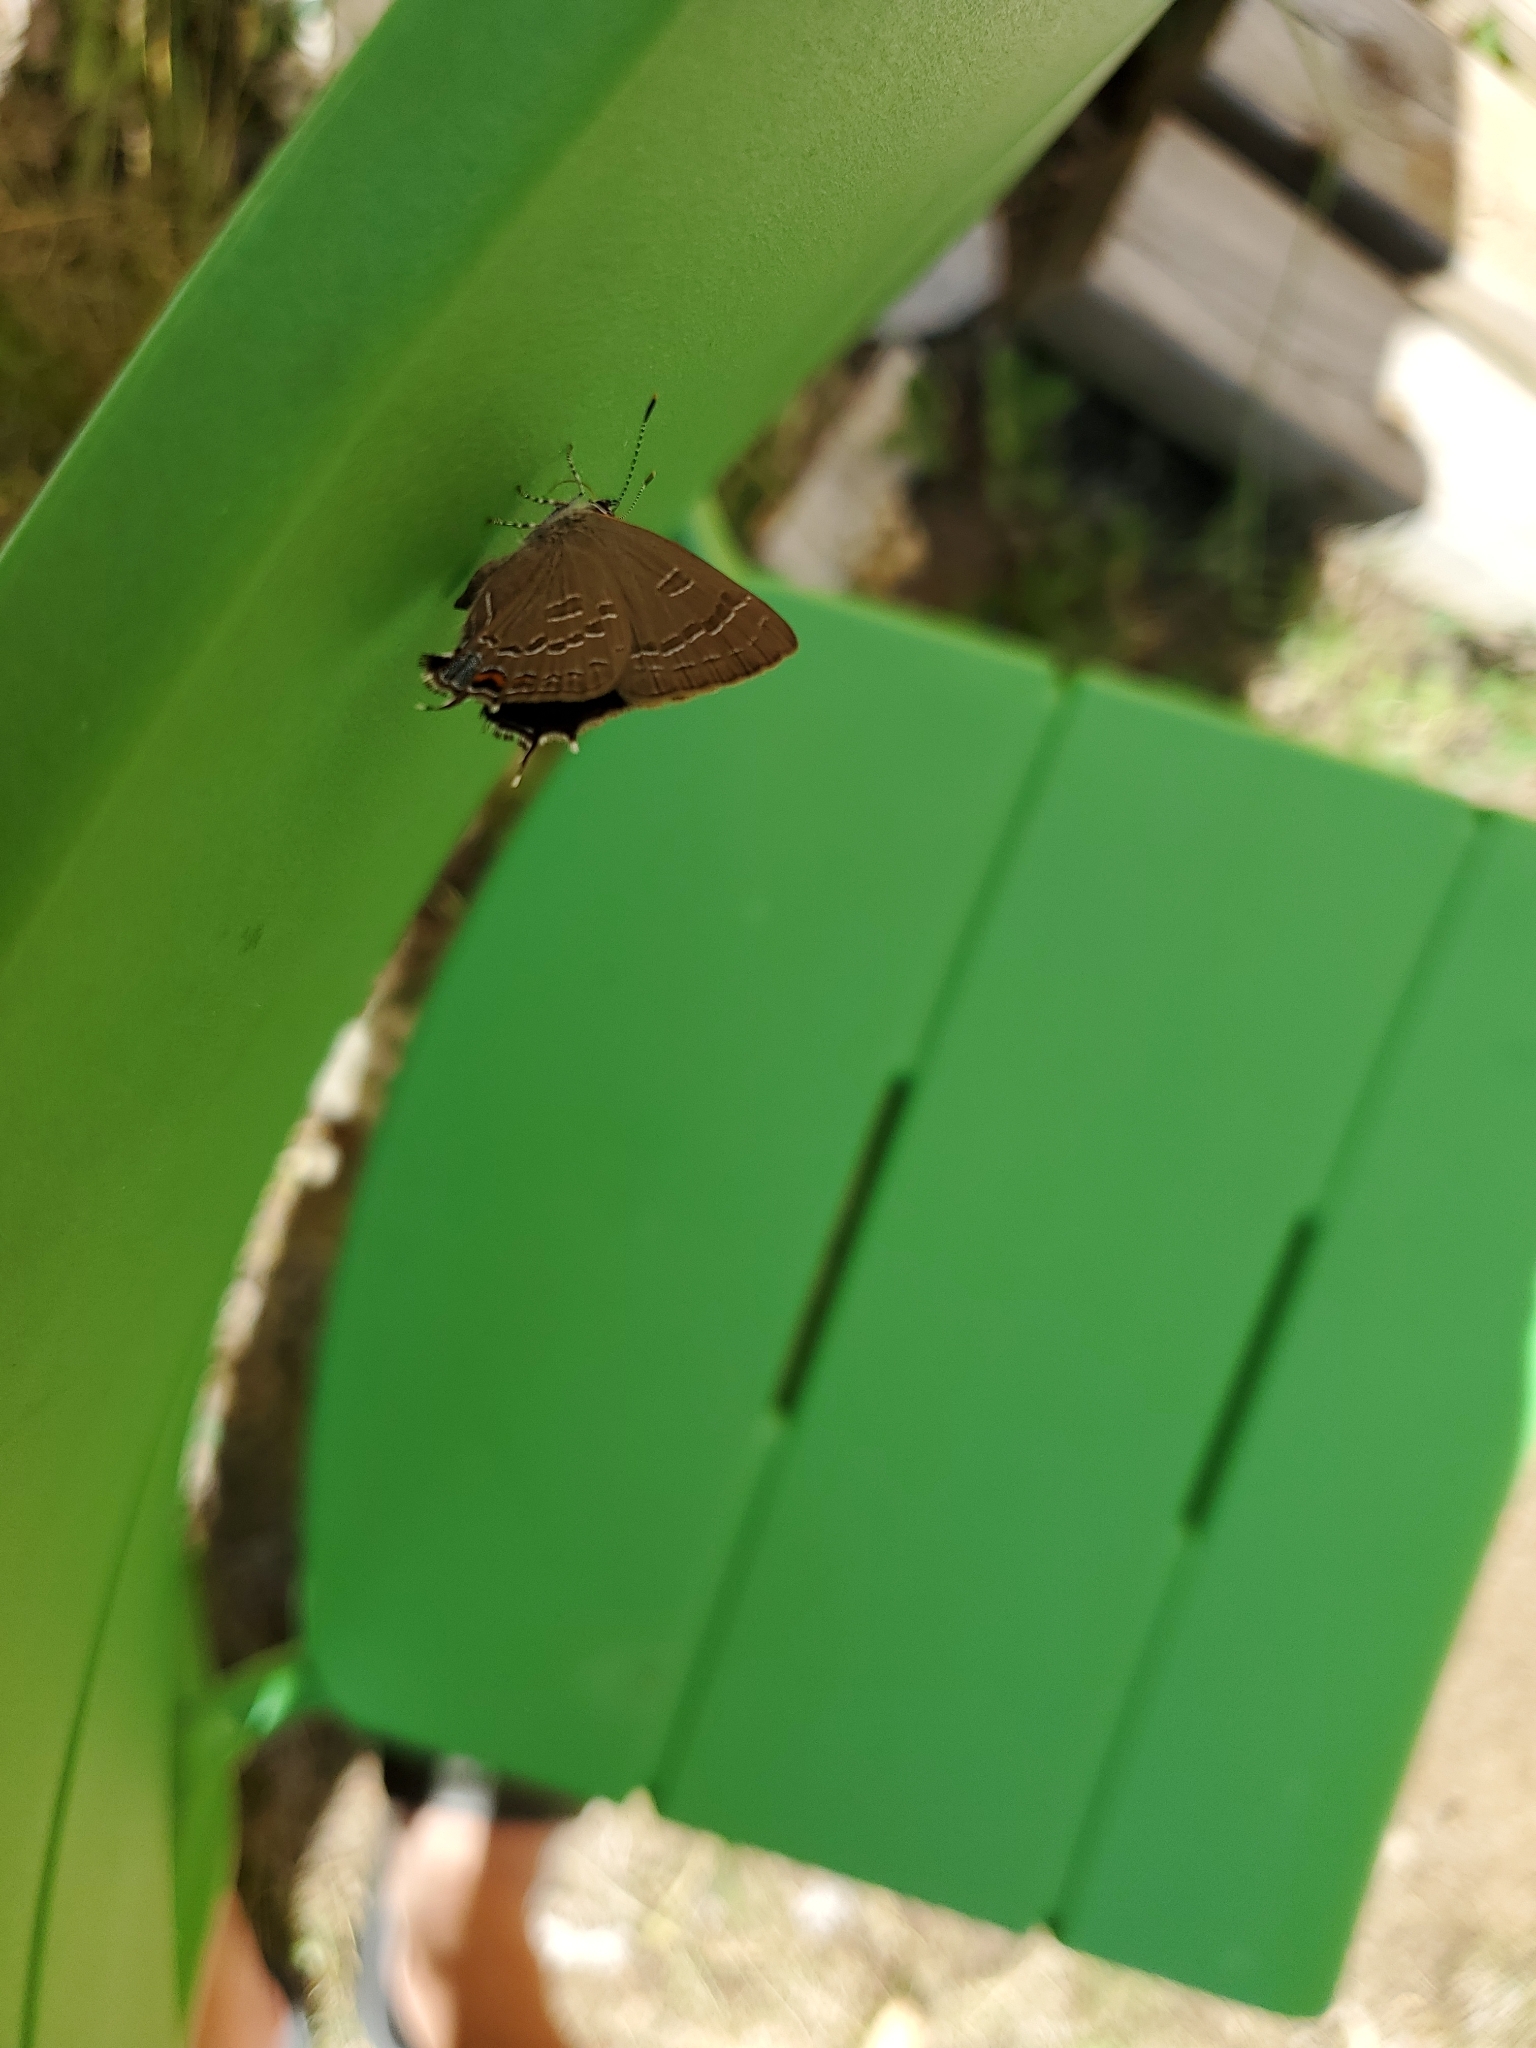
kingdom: Animalia
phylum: Arthropoda
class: Insecta
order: Lepidoptera
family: Lycaenidae
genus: Satyrium
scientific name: Satyrium calanus
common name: Banded hairstreak
